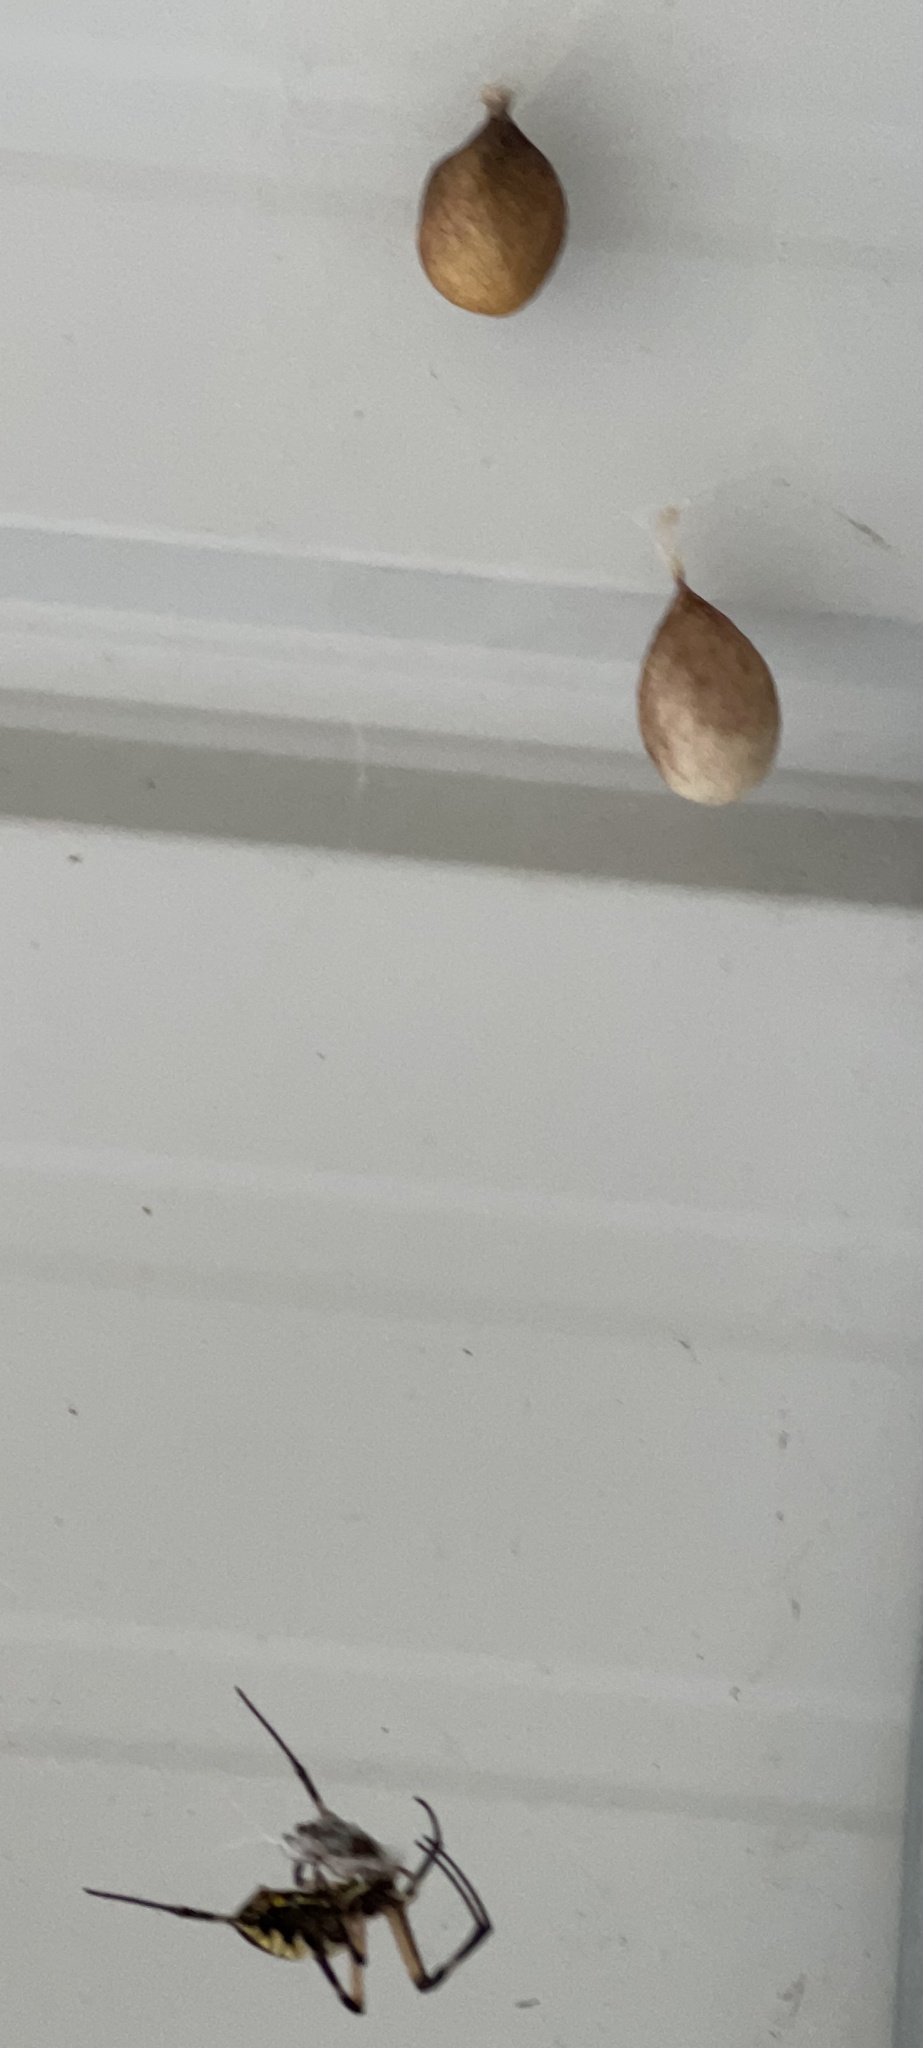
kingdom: Animalia
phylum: Arthropoda
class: Arachnida
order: Araneae
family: Araneidae
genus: Argiope
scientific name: Argiope aurantia
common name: Orb weavers
